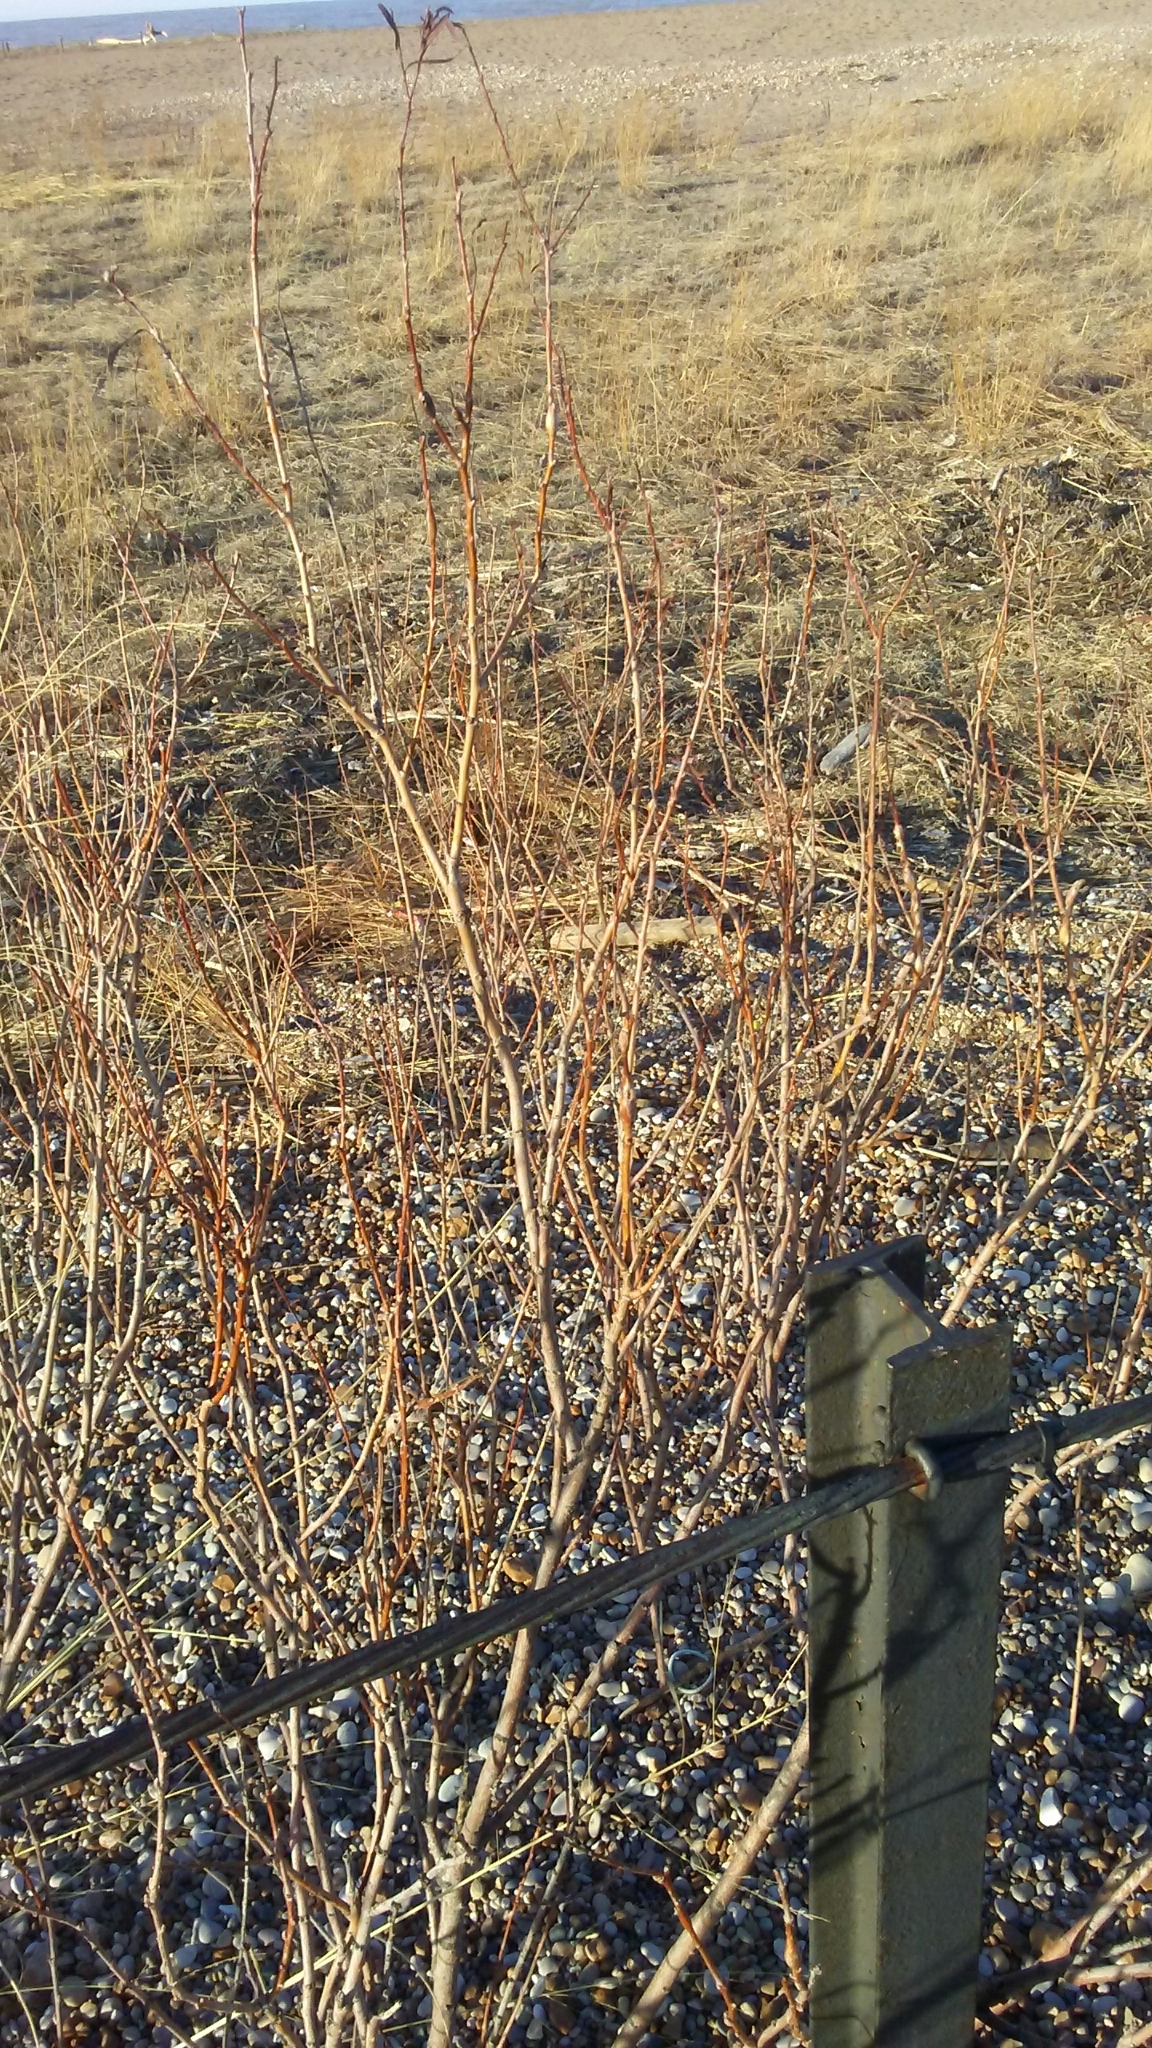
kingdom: Plantae
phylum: Tracheophyta
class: Magnoliopsida
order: Malpighiales
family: Salicaceae
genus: Salix
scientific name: Salix interior
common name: Sandbar willow
